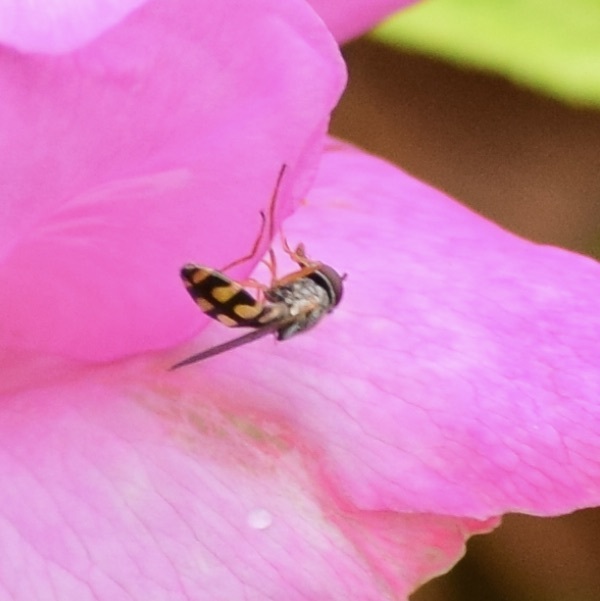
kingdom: Animalia
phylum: Arthropoda
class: Insecta
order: Diptera
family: Syrphidae
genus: Melanostoma
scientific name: Melanostoma mellina
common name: Hover fly
